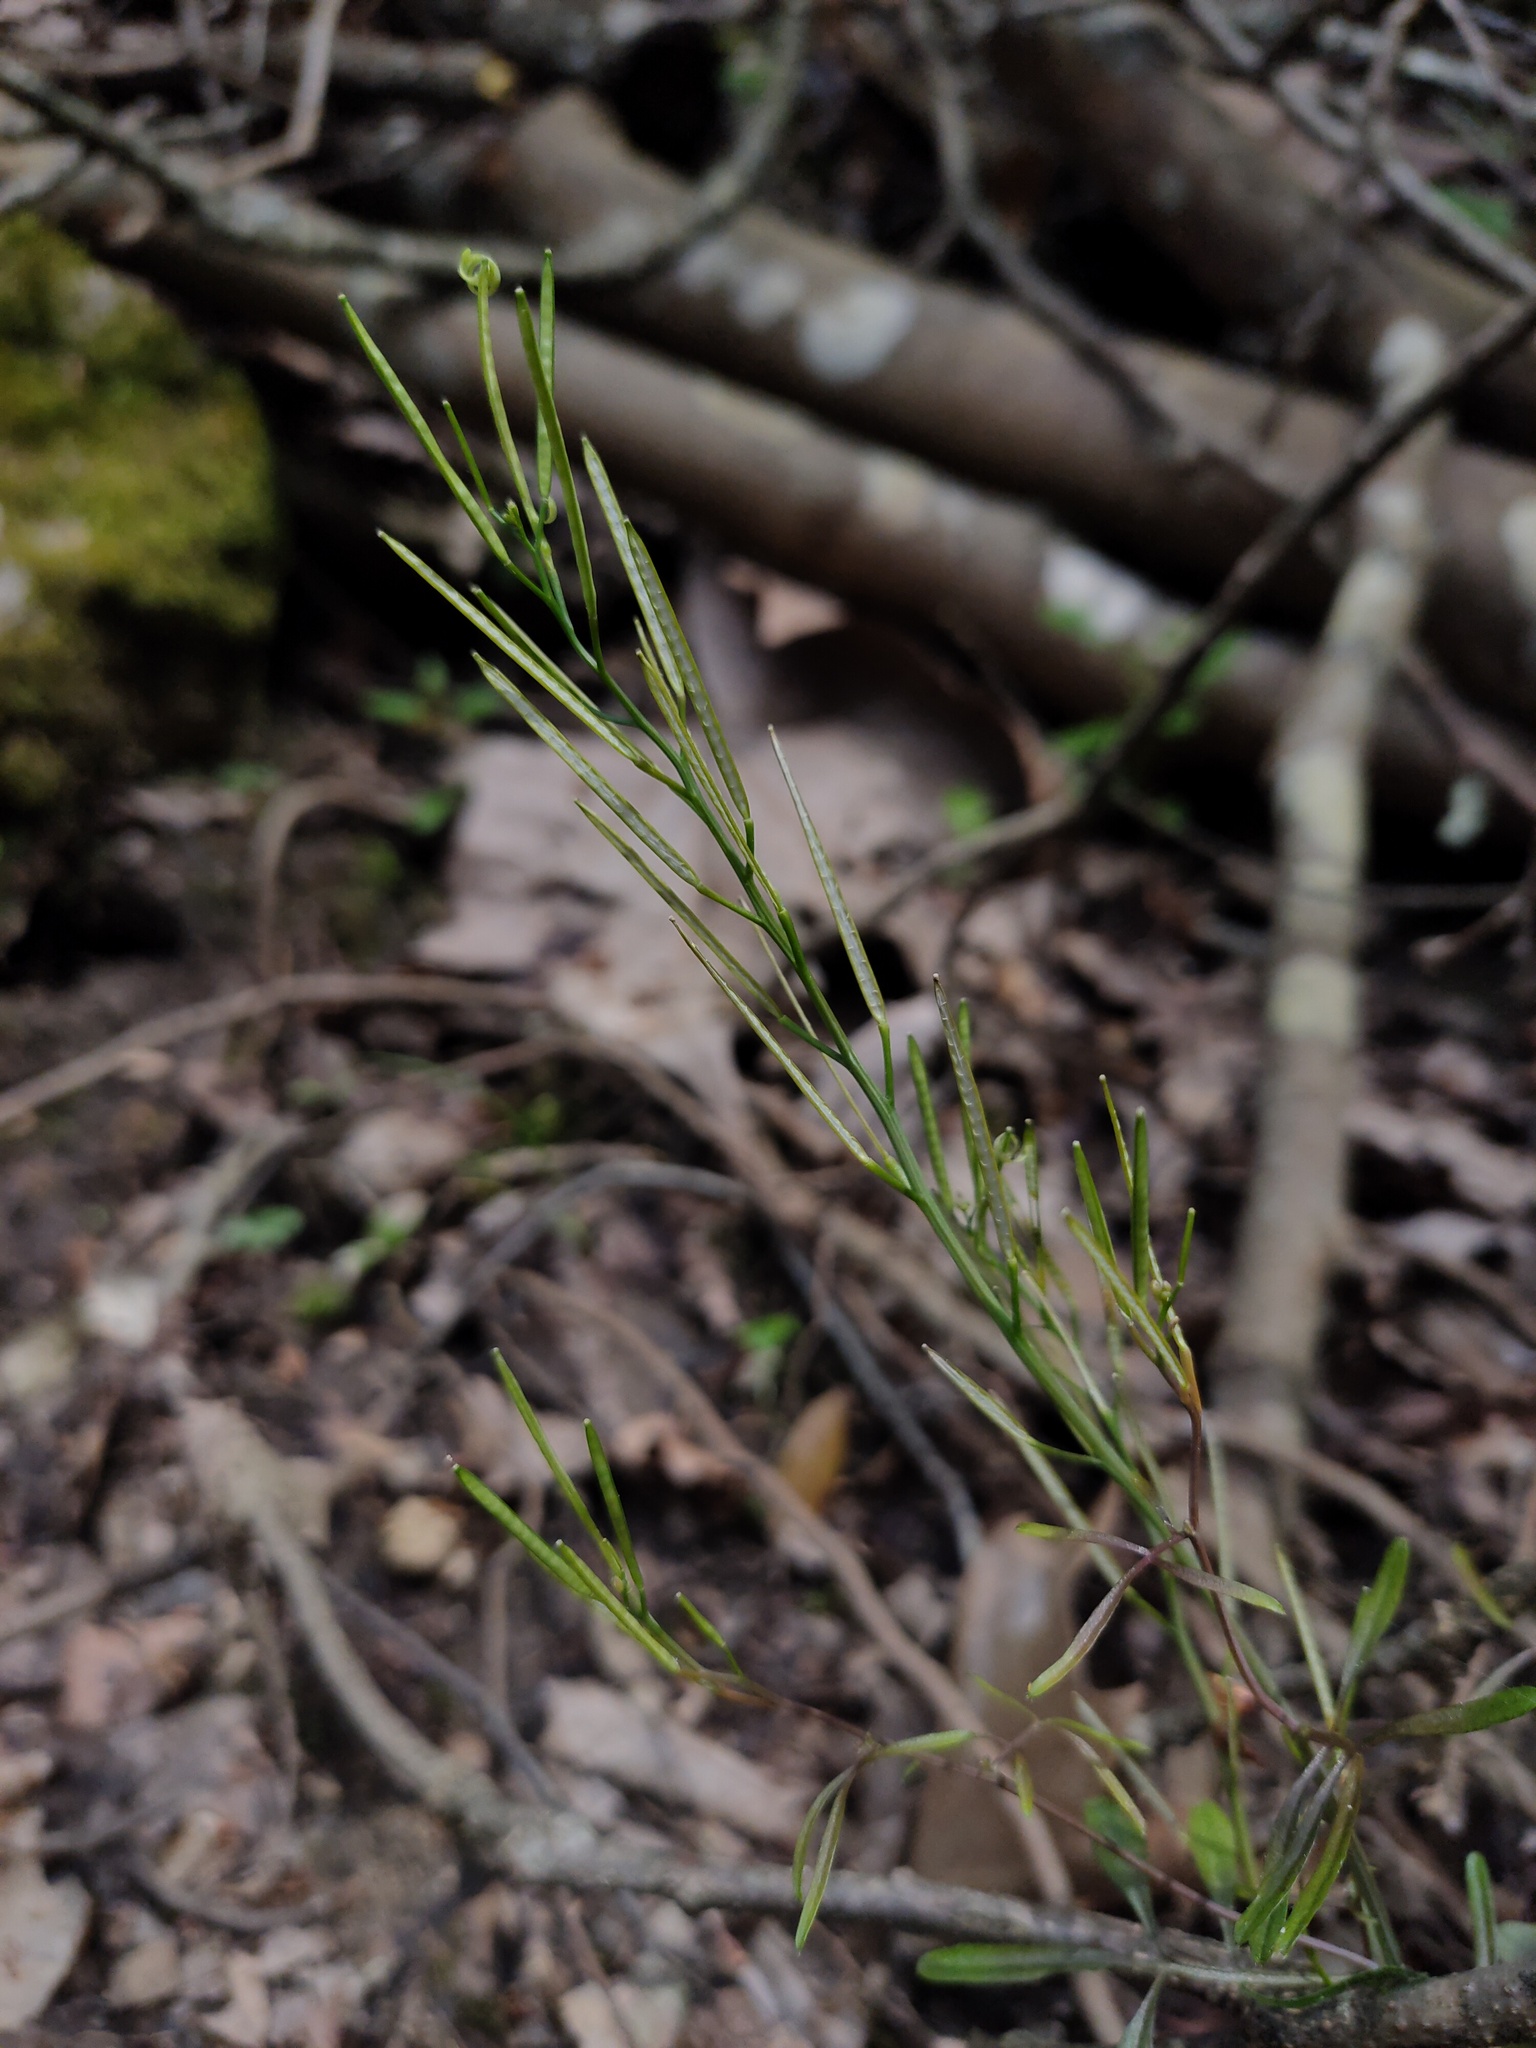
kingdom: Plantae
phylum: Tracheophyta
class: Magnoliopsida
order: Brassicales
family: Brassicaceae
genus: Cardamine
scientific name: Cardamine hirsuta
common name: Hairy bittercress
